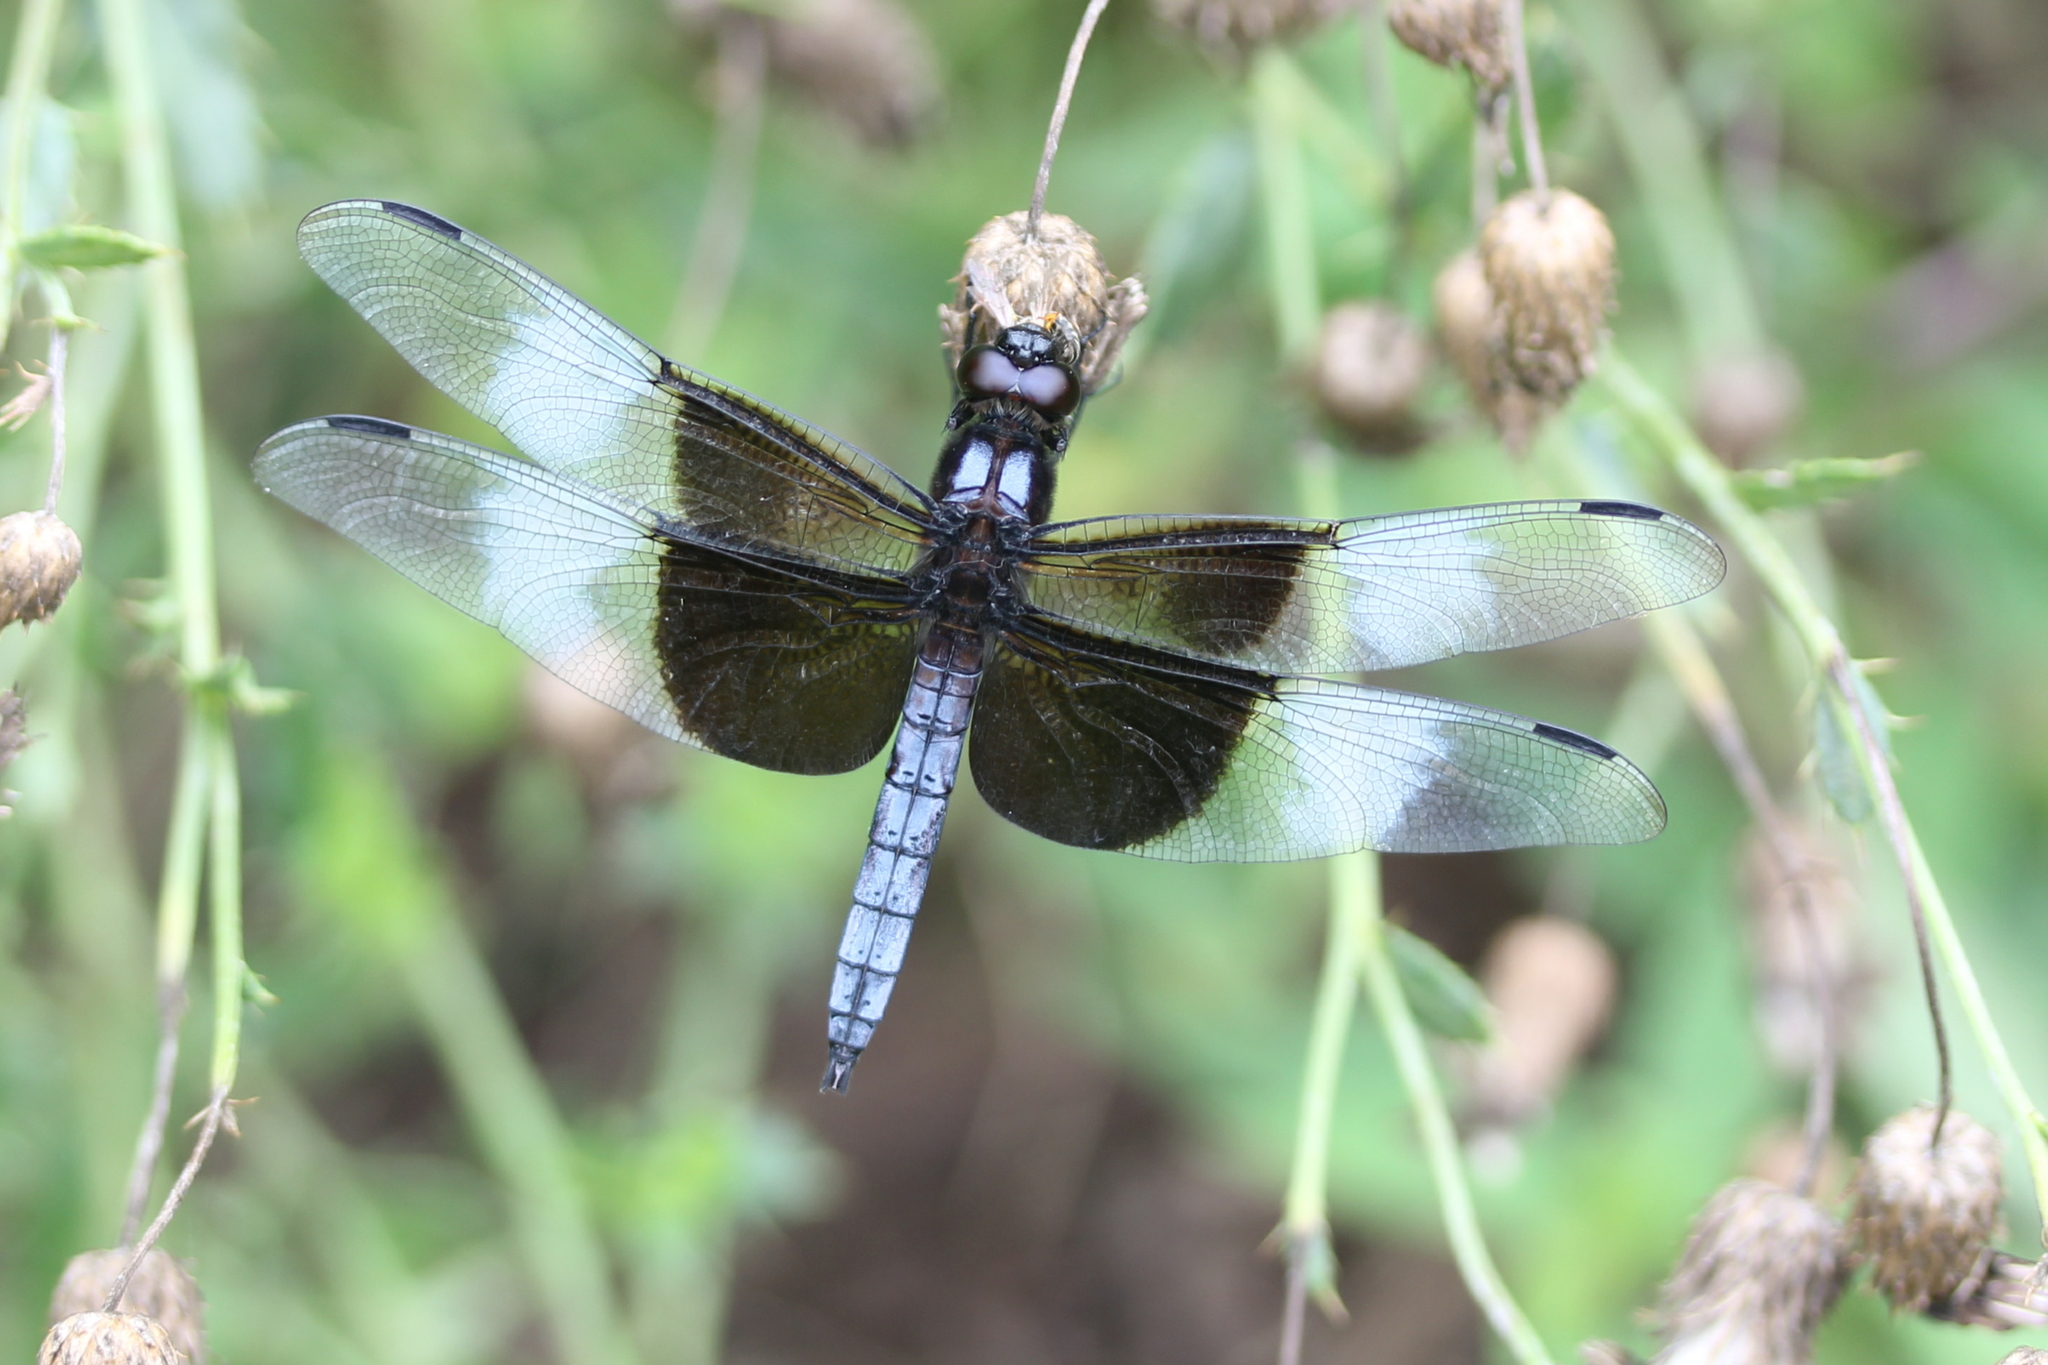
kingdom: Animalia
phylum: Arthropoda
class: Insecta
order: Odonata
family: Libellulidae
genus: Libellula
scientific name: Libellula luctuosa
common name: Widow skimmer
